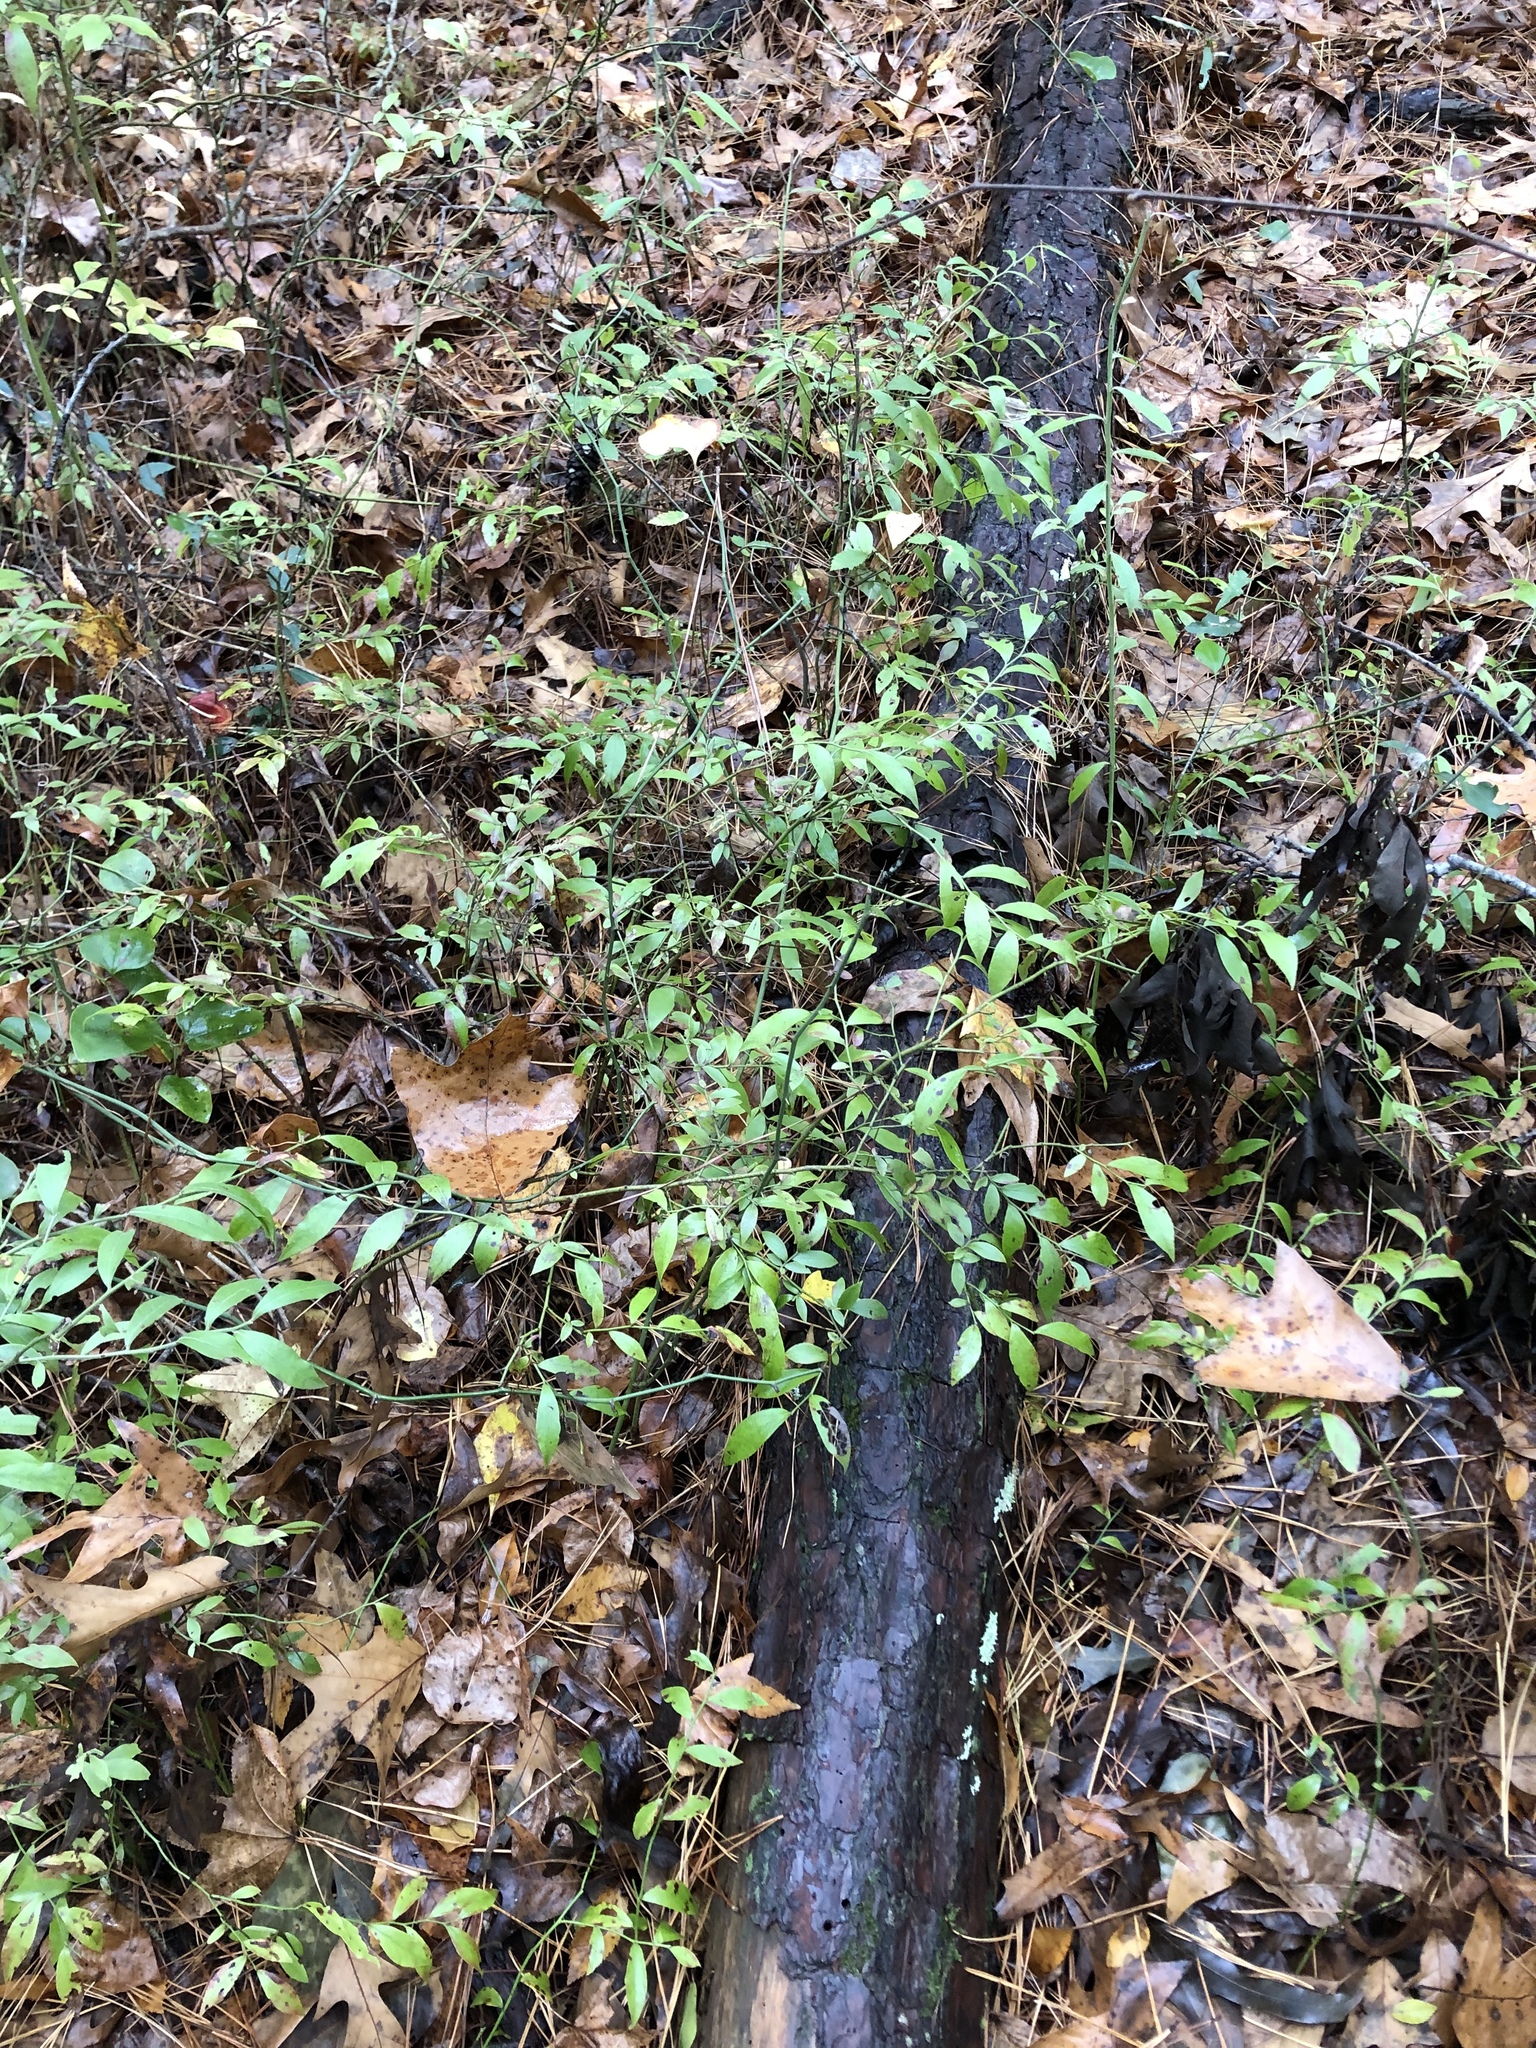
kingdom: Plantae
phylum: Tracheophyta
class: Magnoliopsida
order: Ericales
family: Ericaceae
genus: Vaccinium
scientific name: Vaccinium
